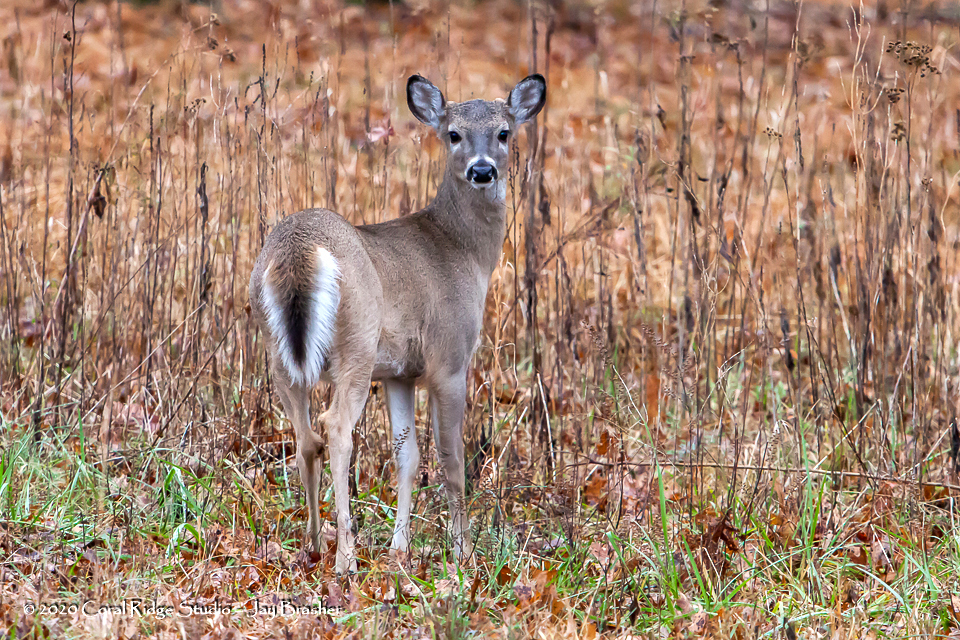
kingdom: Animalia
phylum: Chordata
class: Mammalia
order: Artiodactyla
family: Cervidae
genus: Odocoileus
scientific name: Odocoileus virginianus
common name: White-tailed deer
